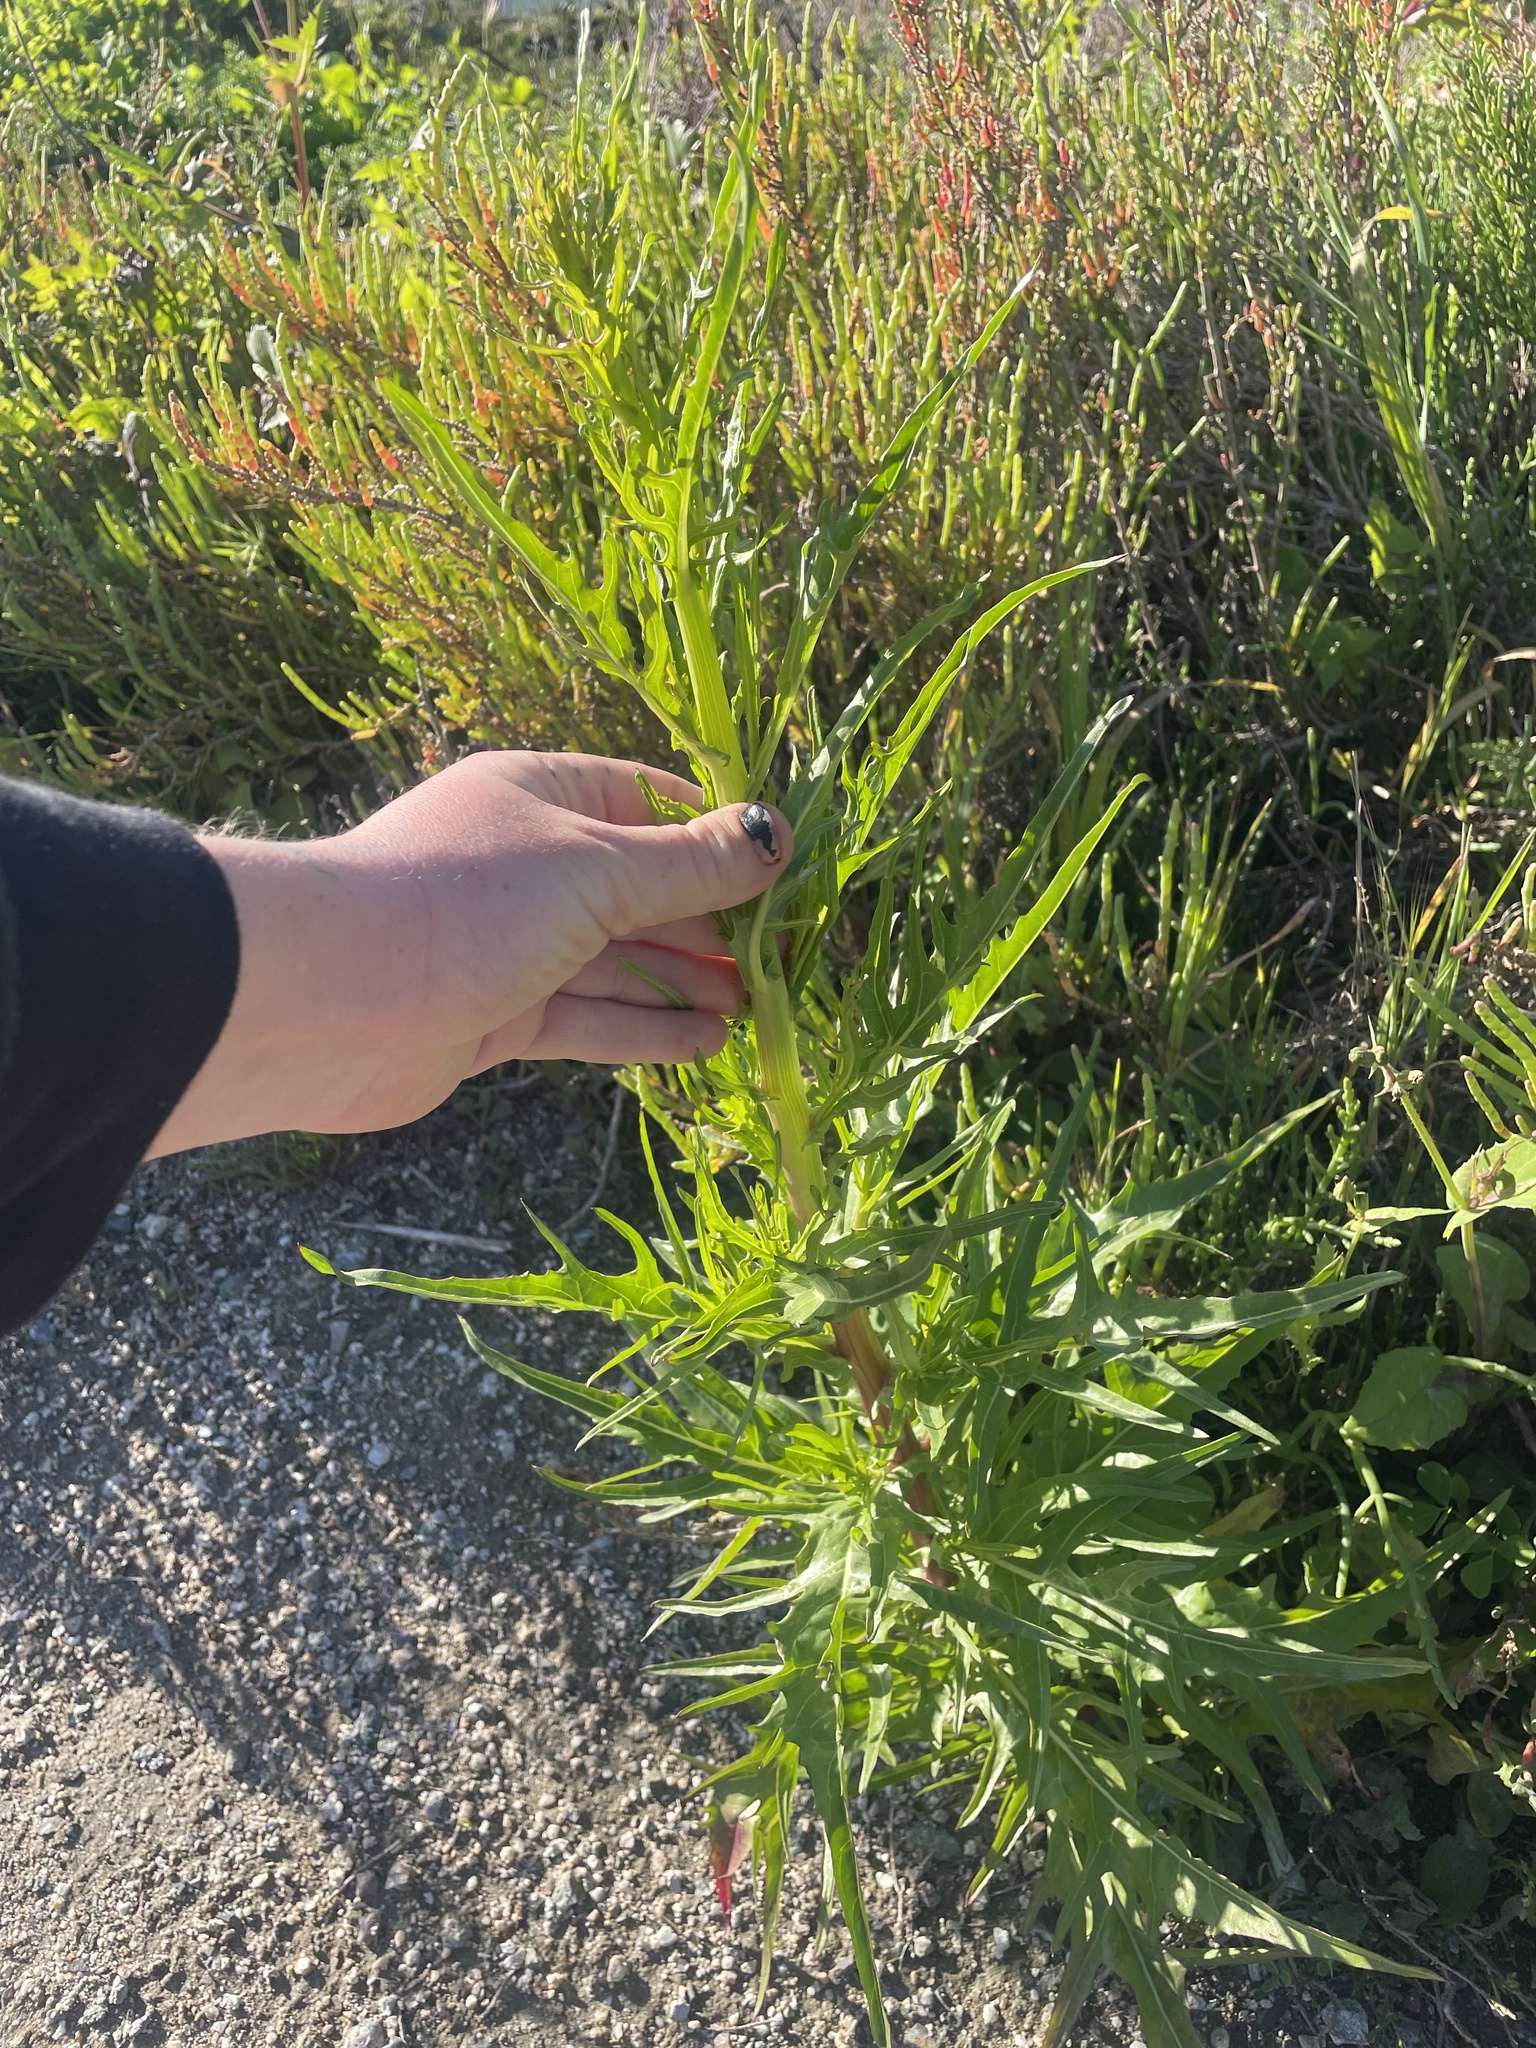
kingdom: Plantae
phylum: Tracheophyta
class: Magnoliopsida
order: Asterales
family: Asteraceae
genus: Malacothrix
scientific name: Malacothrix saxatilis
